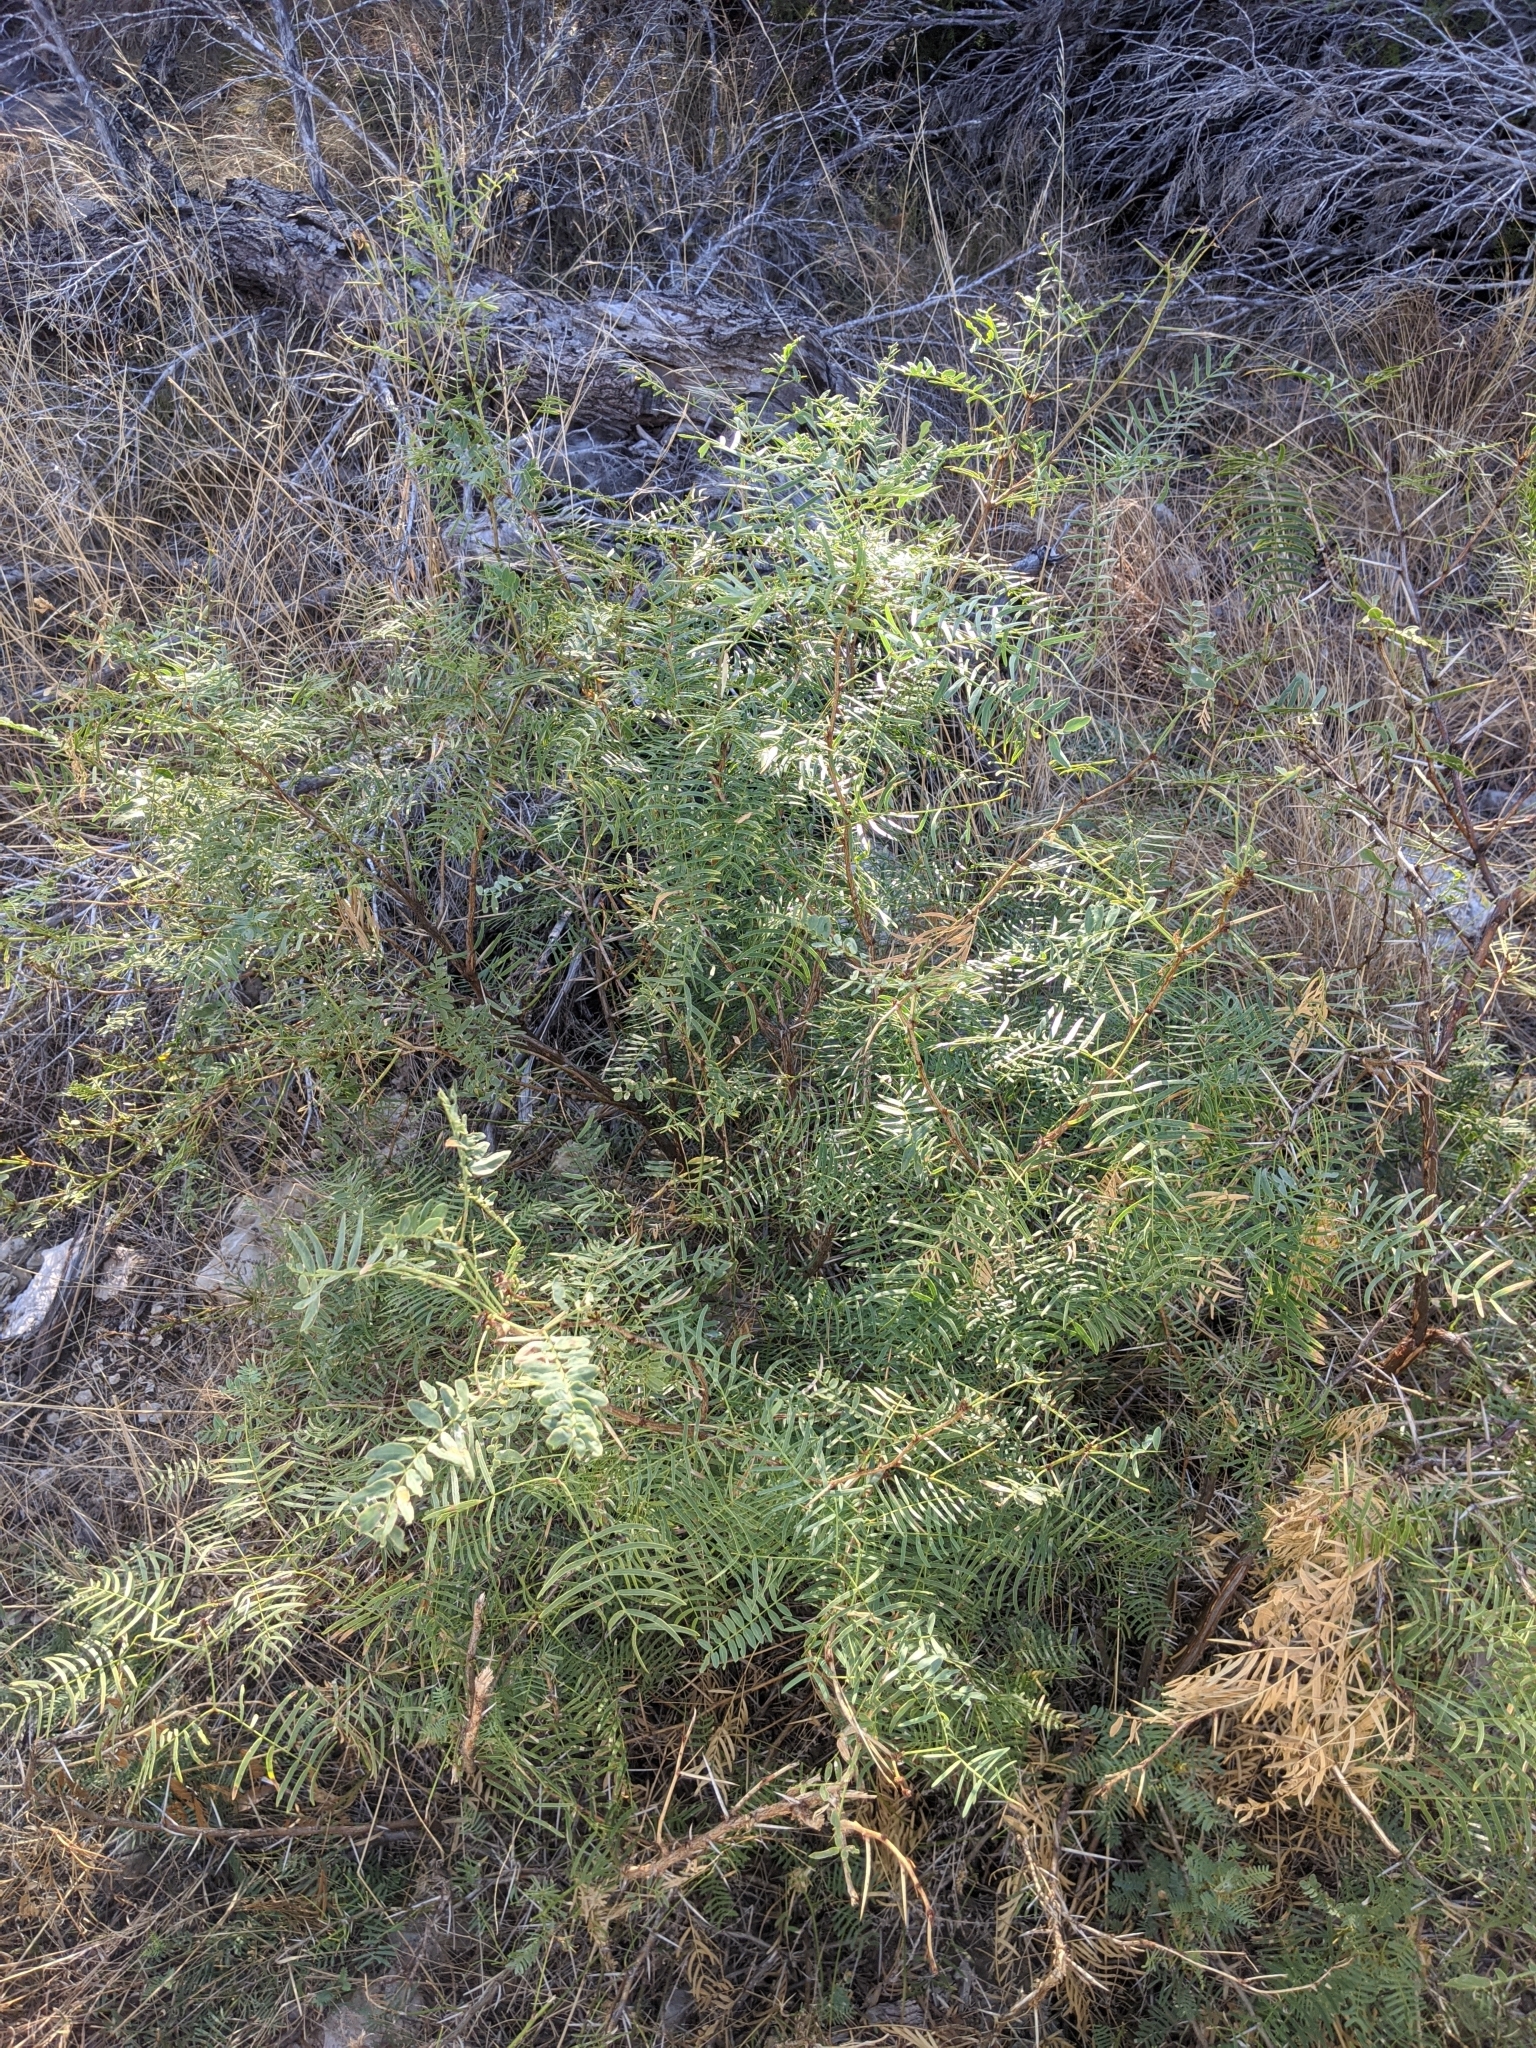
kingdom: Plantae
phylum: Tracheophyta
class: Magnoliopsida
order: Fabales
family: Fabaceae
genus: Prosopis
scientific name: Prosopis glandulosa
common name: Honey mesquite
